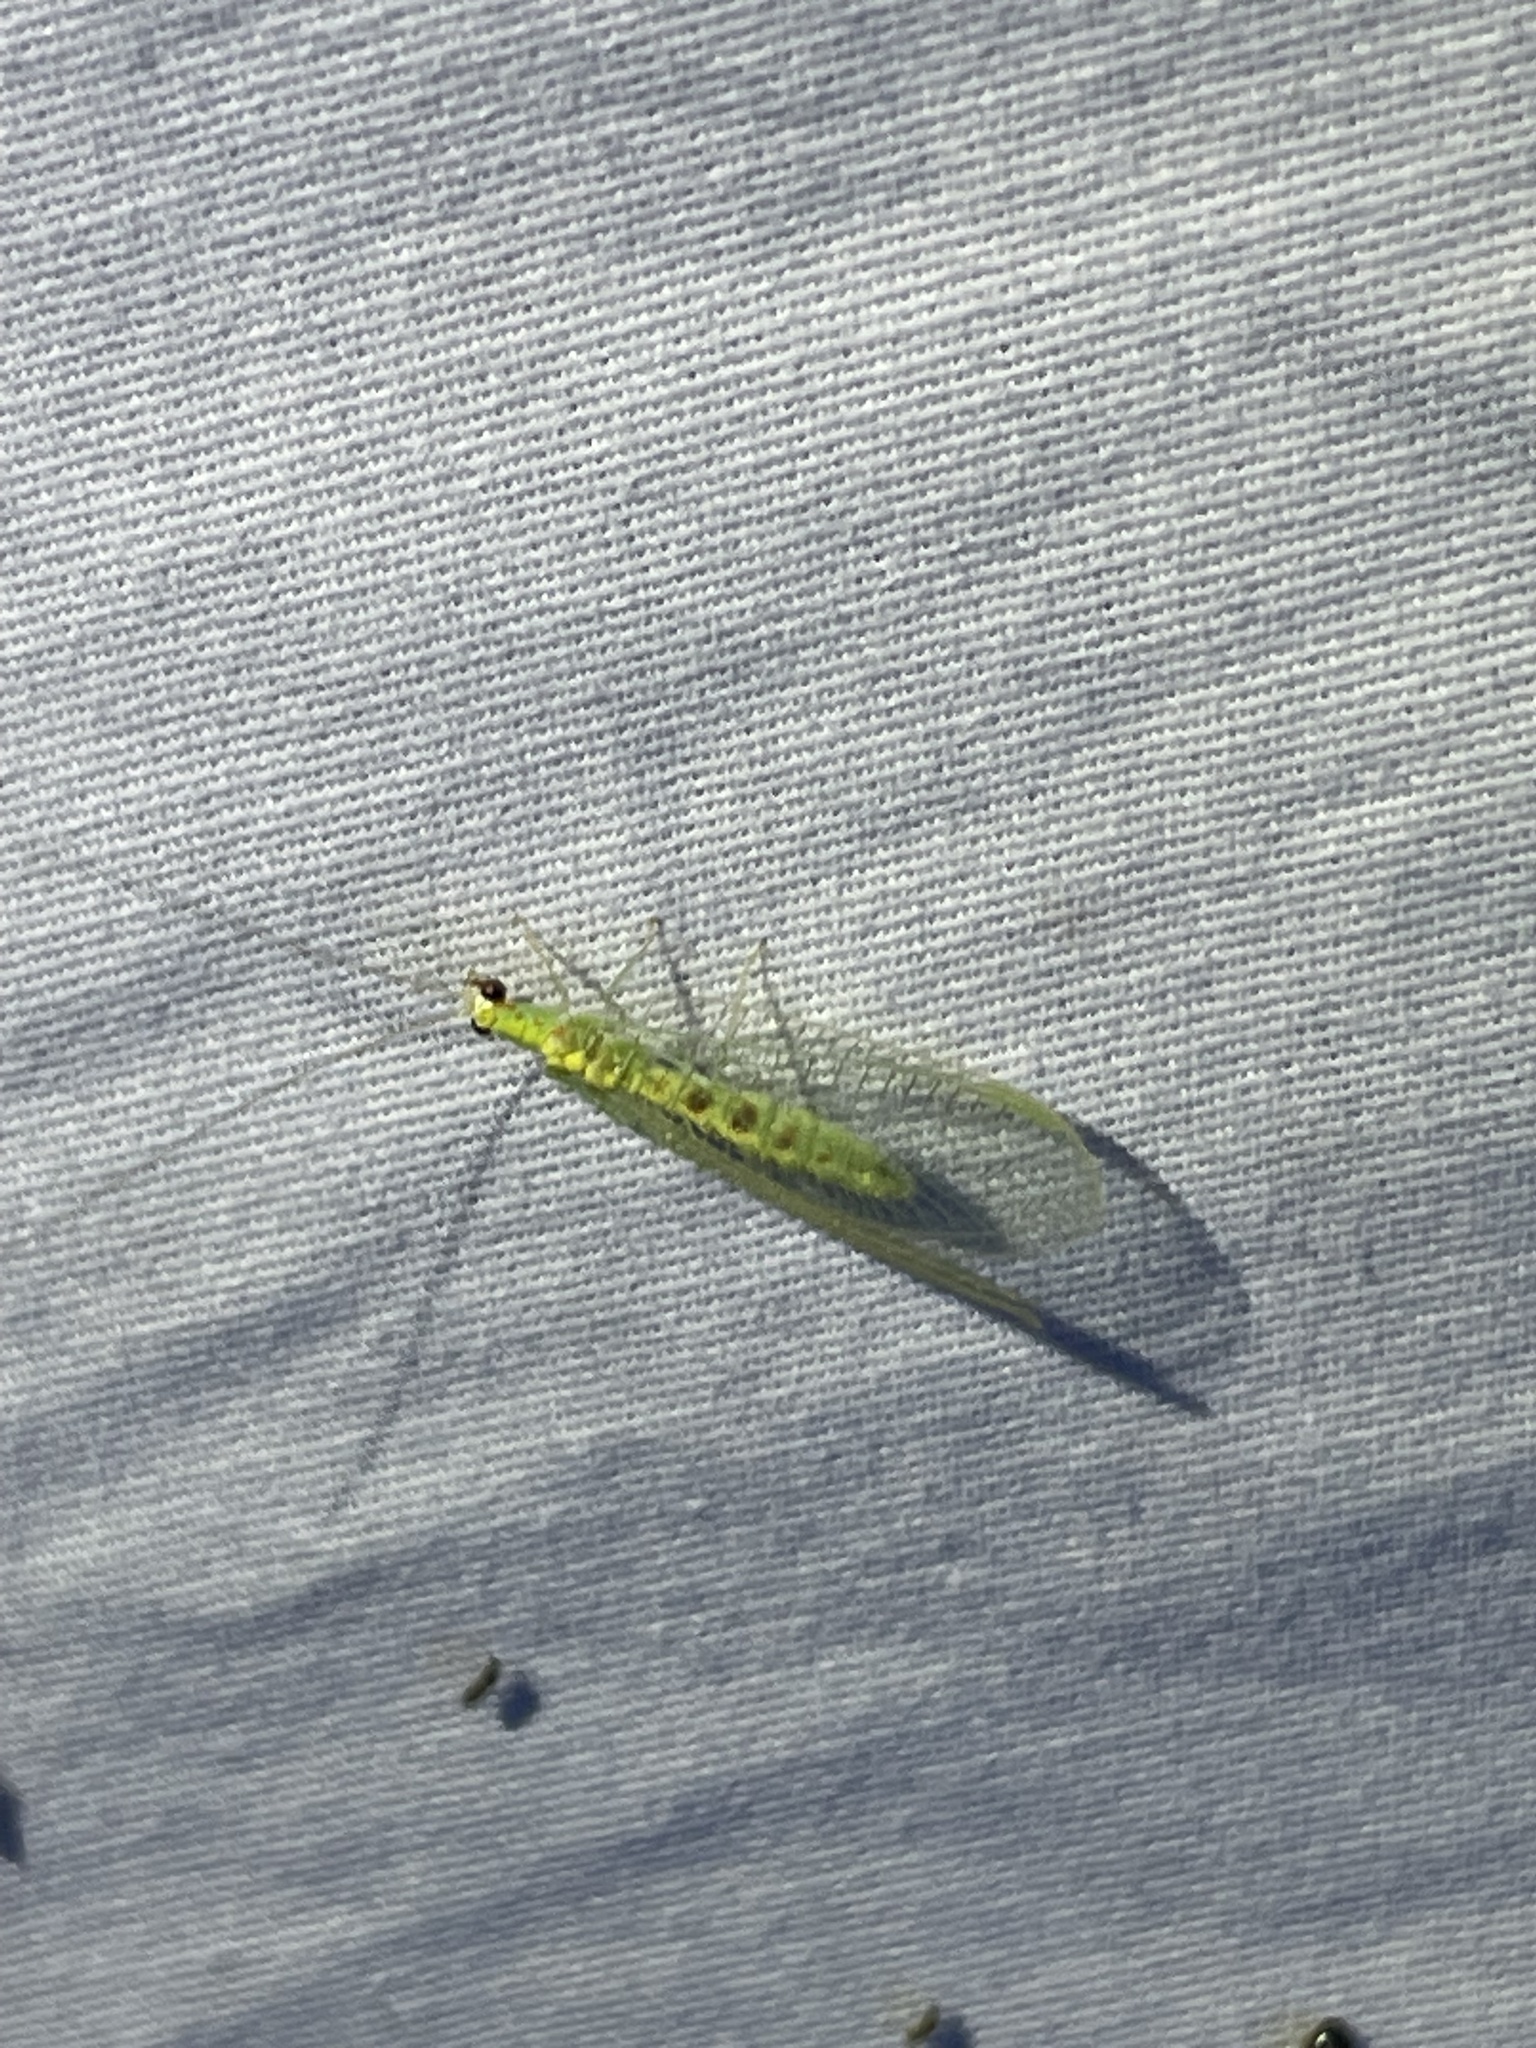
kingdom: Animalia
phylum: Arthropoda
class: Insecta
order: Neuroptera
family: Chrysopidae
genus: Chrysopa
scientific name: Chrysopa quadripunctata
